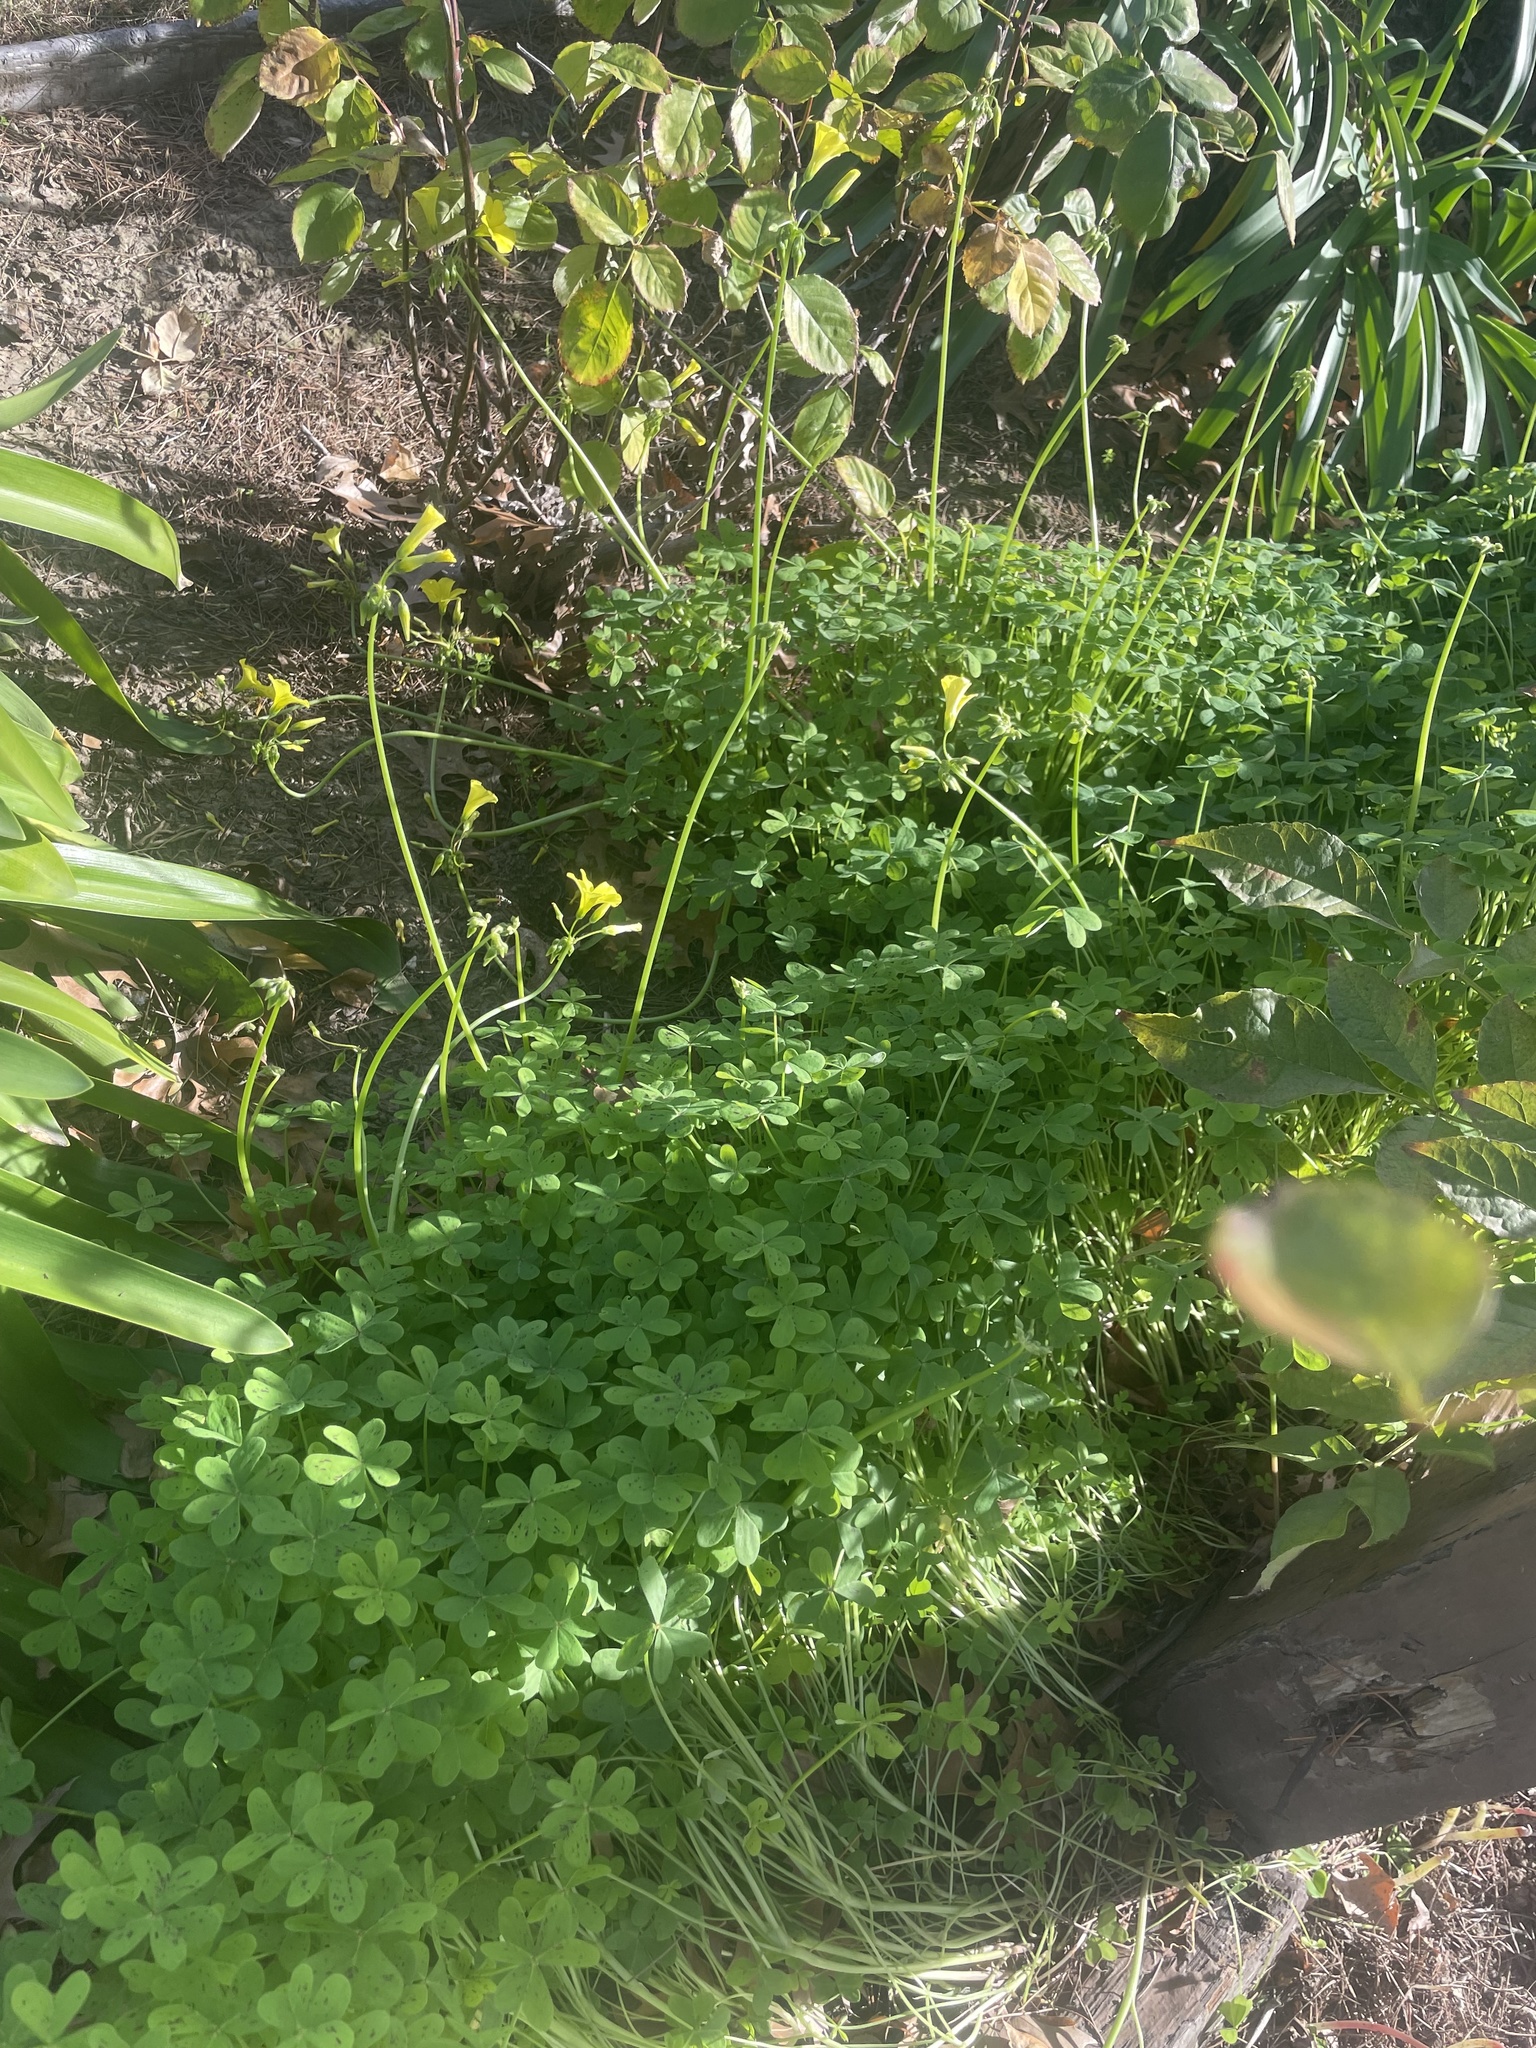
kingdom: Plantae
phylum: Tracheophyta
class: Magnoliopsida
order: Oxalidales
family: Oxalidaceae
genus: Oxalis
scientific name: Oxalis pes-caprae
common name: Bermuda-buttercup
